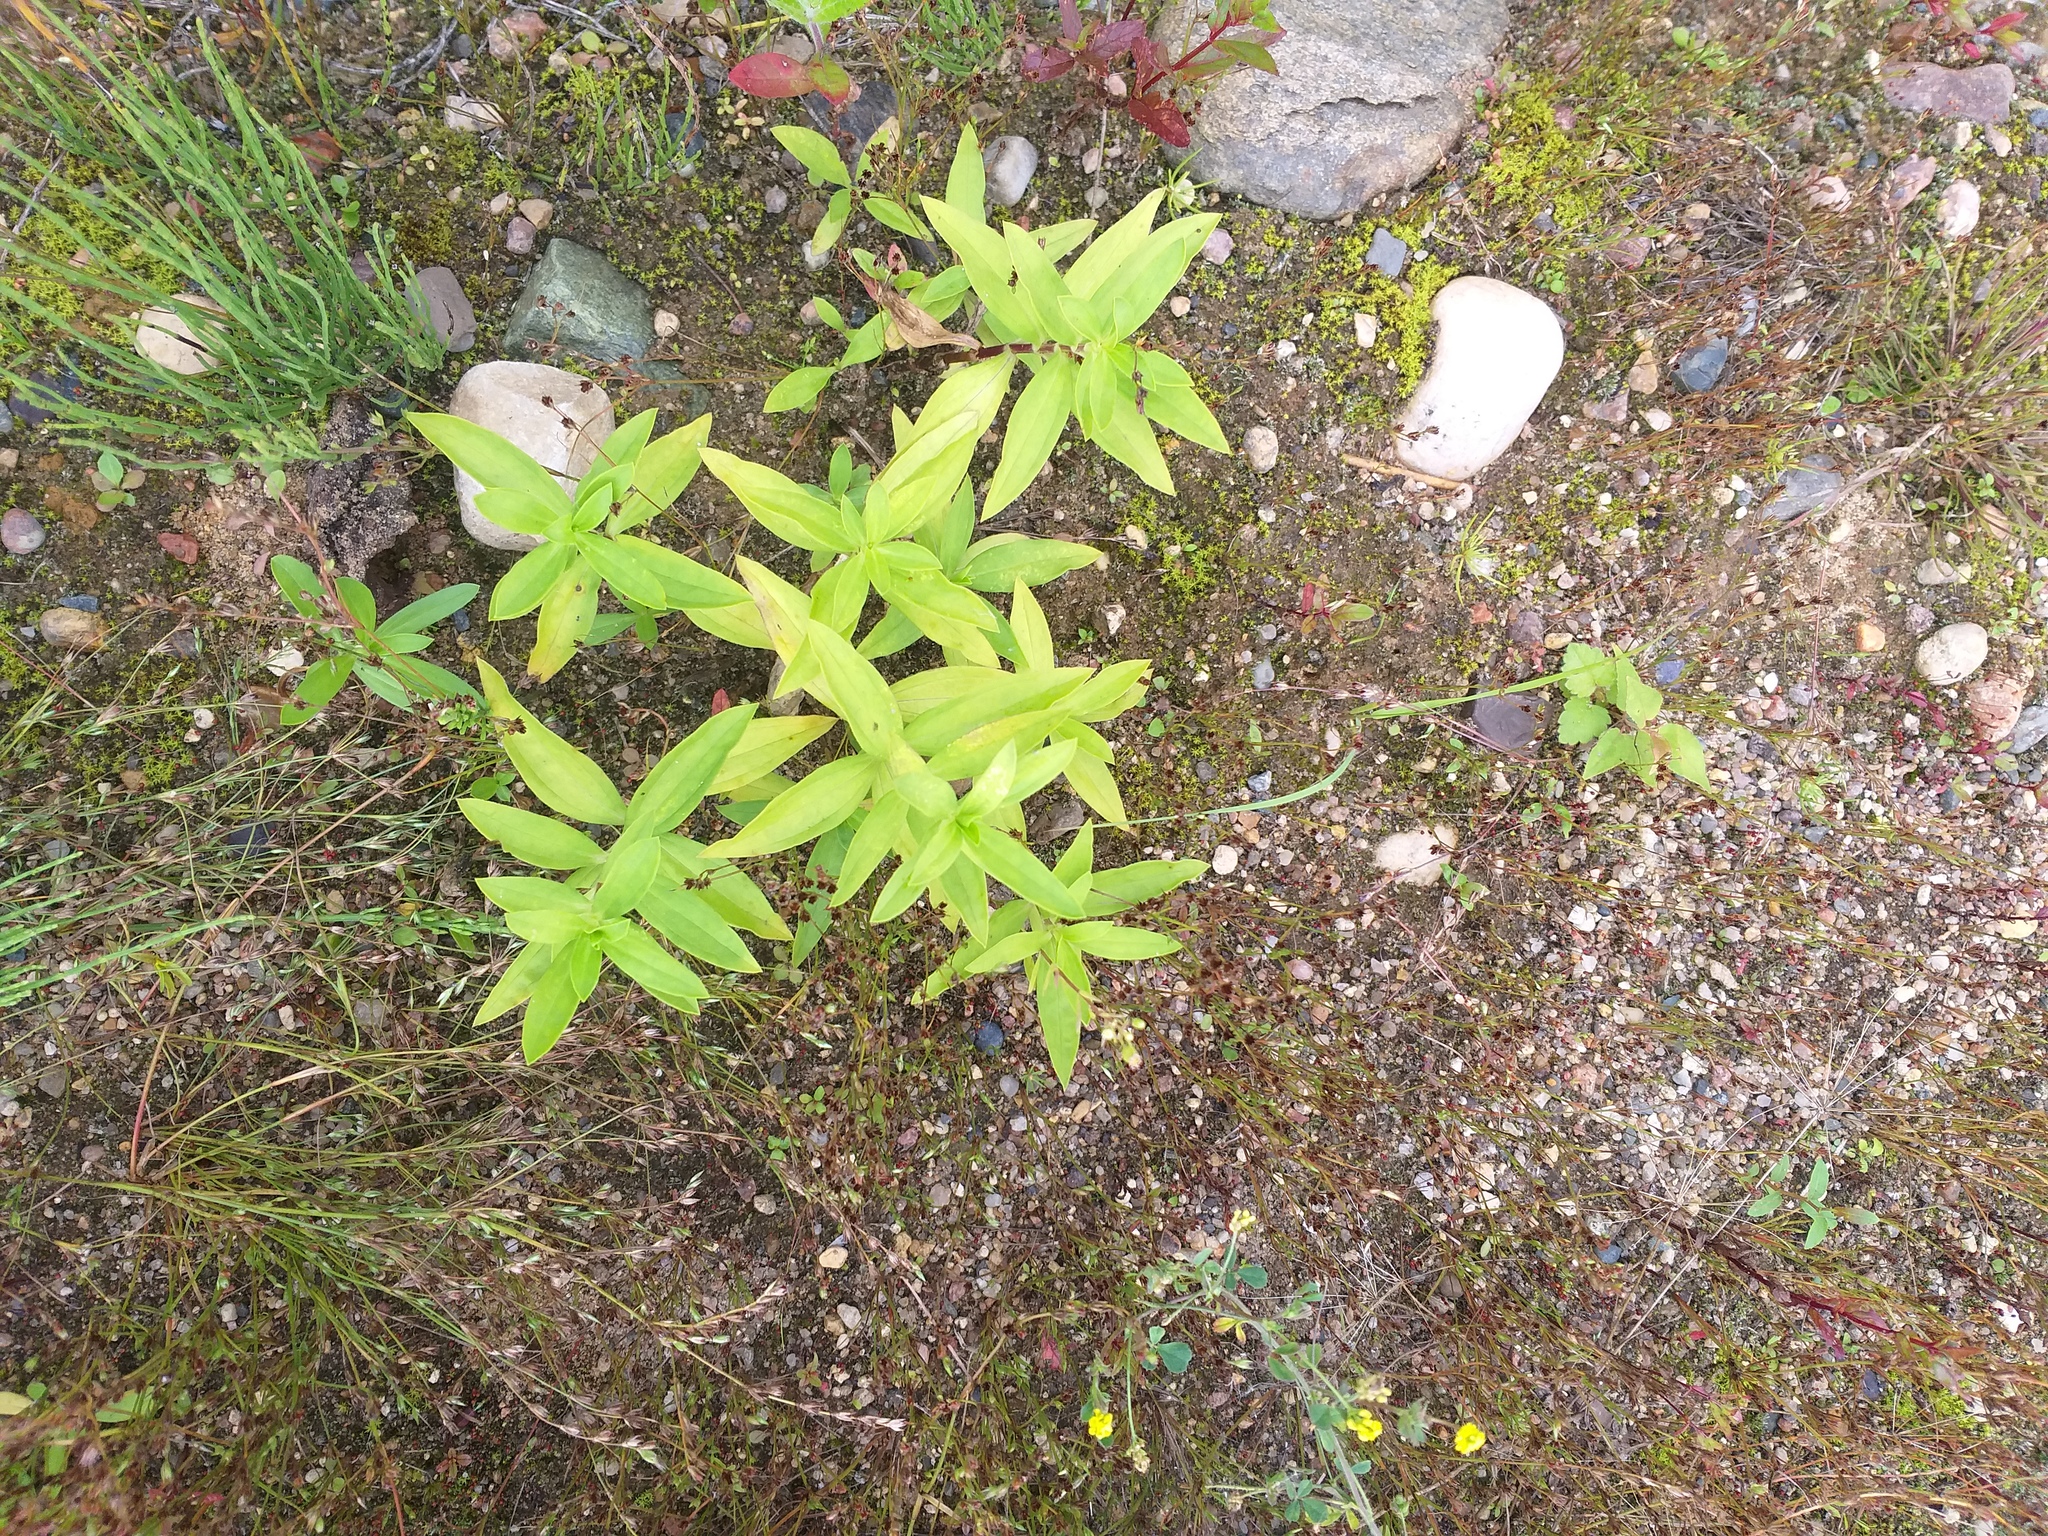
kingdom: Plantae
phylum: Tracheophyta
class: Magnoliopsida
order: Caryophyllales
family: Caryophyllaceae
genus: Saponaria
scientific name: Saponaria officinalis
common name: Soapwort
